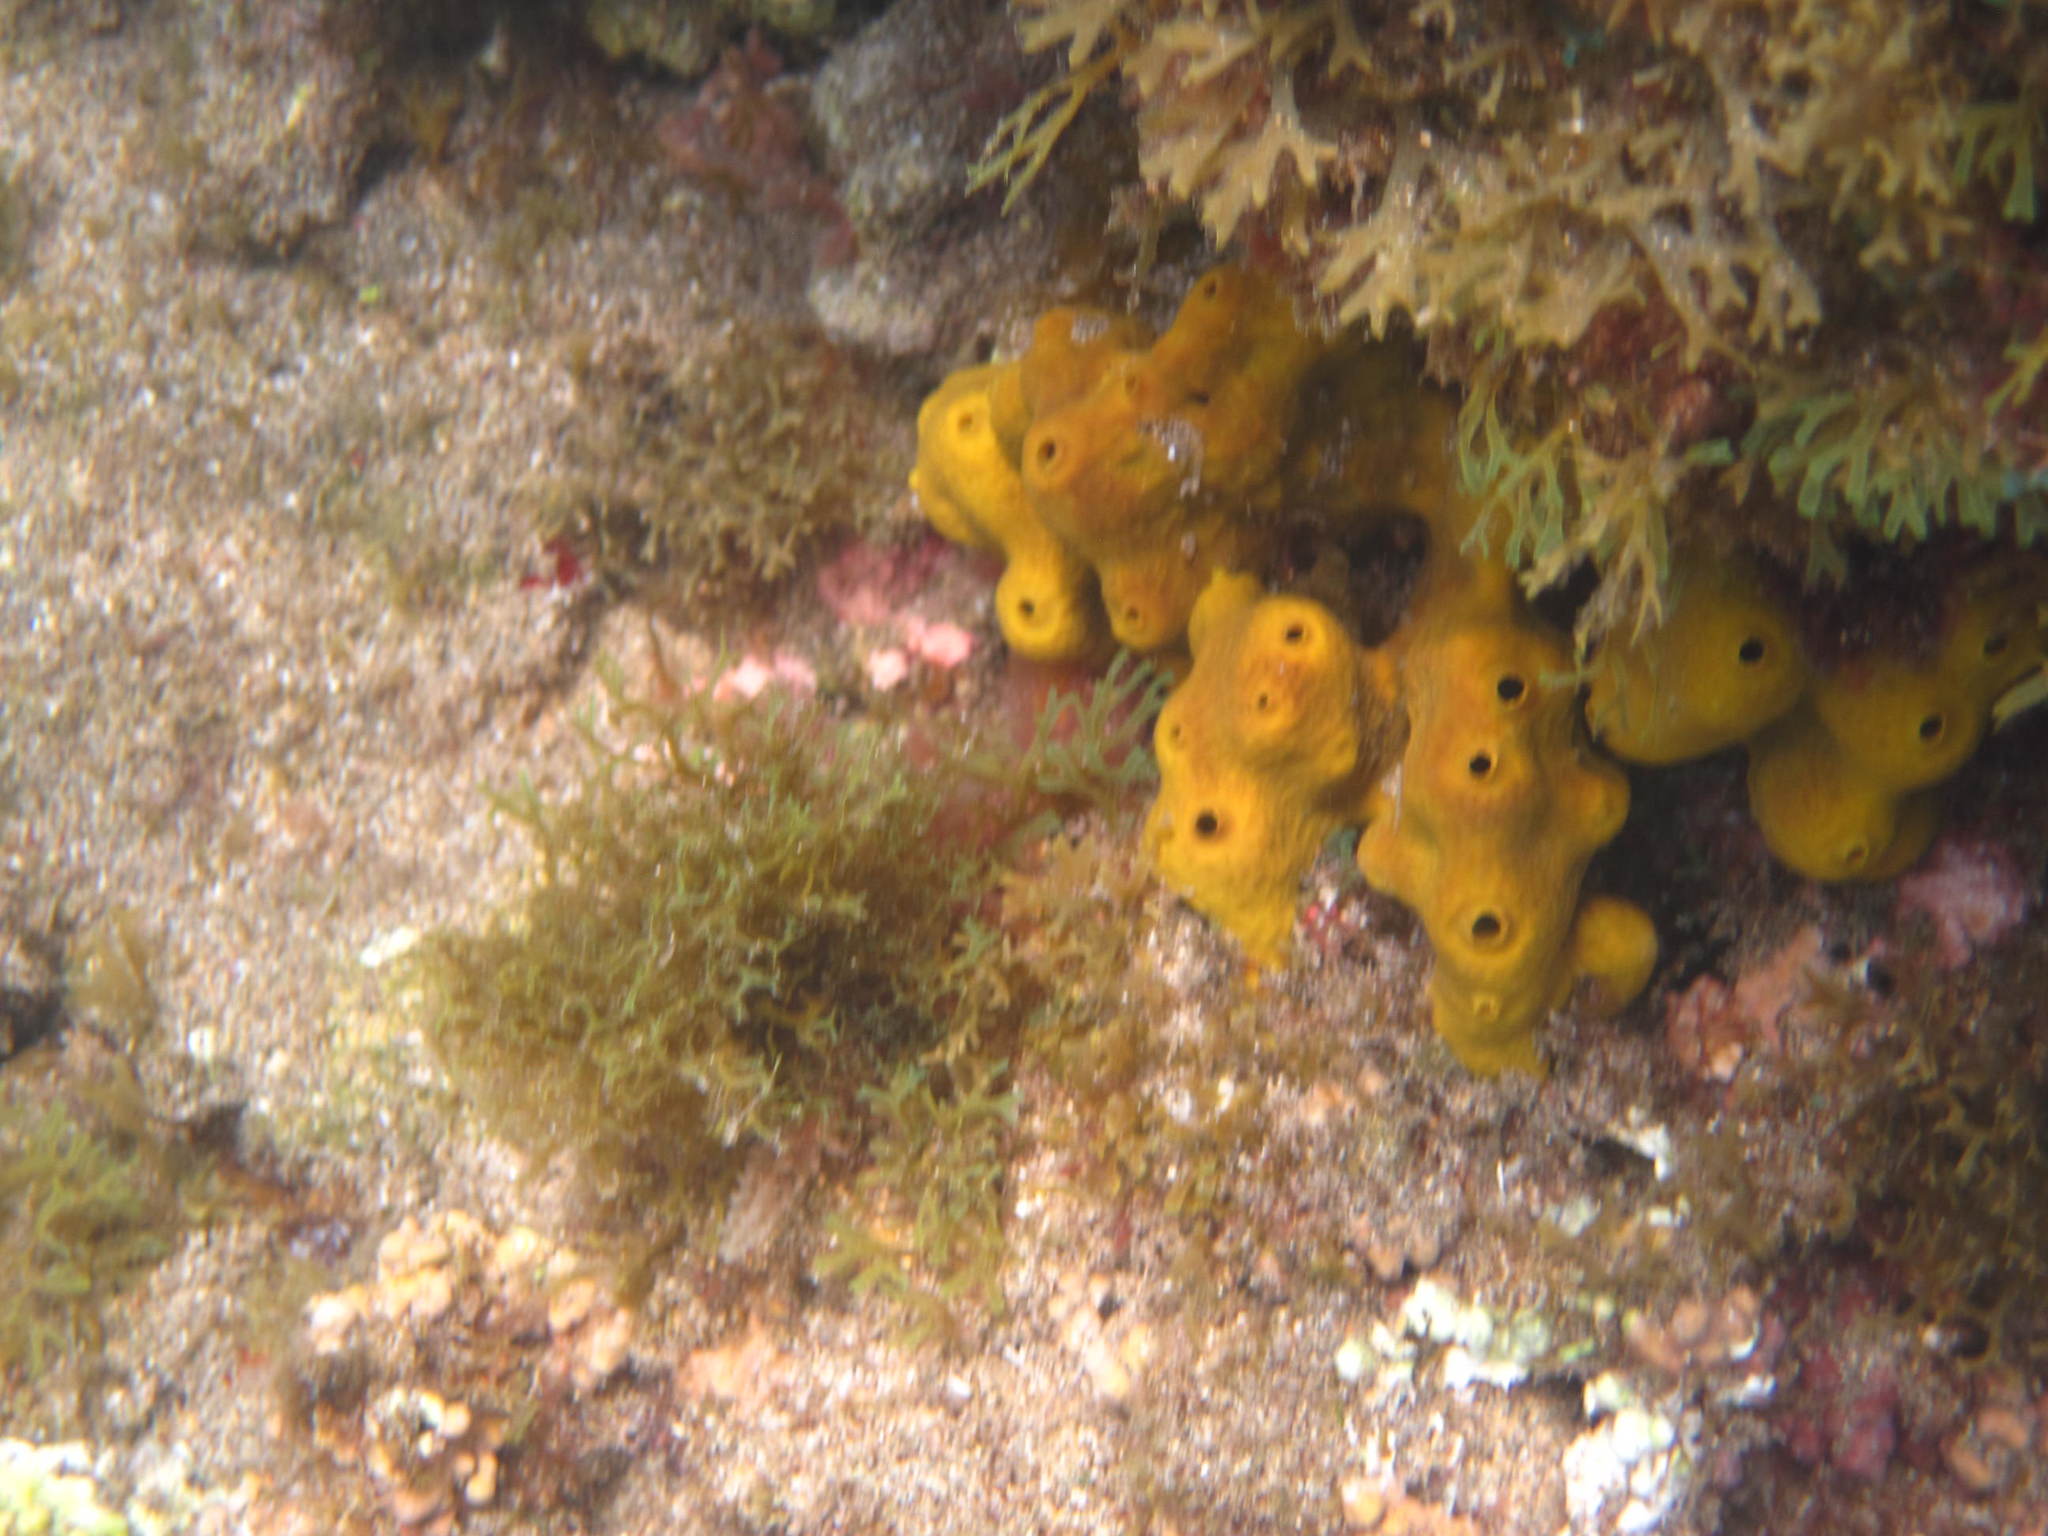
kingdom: Animalia
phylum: Porifera
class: Demospongiae
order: Verongiida
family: Aplysinidae
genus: Aplysina
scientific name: Aplysina aerophoba
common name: Aureate sponge
